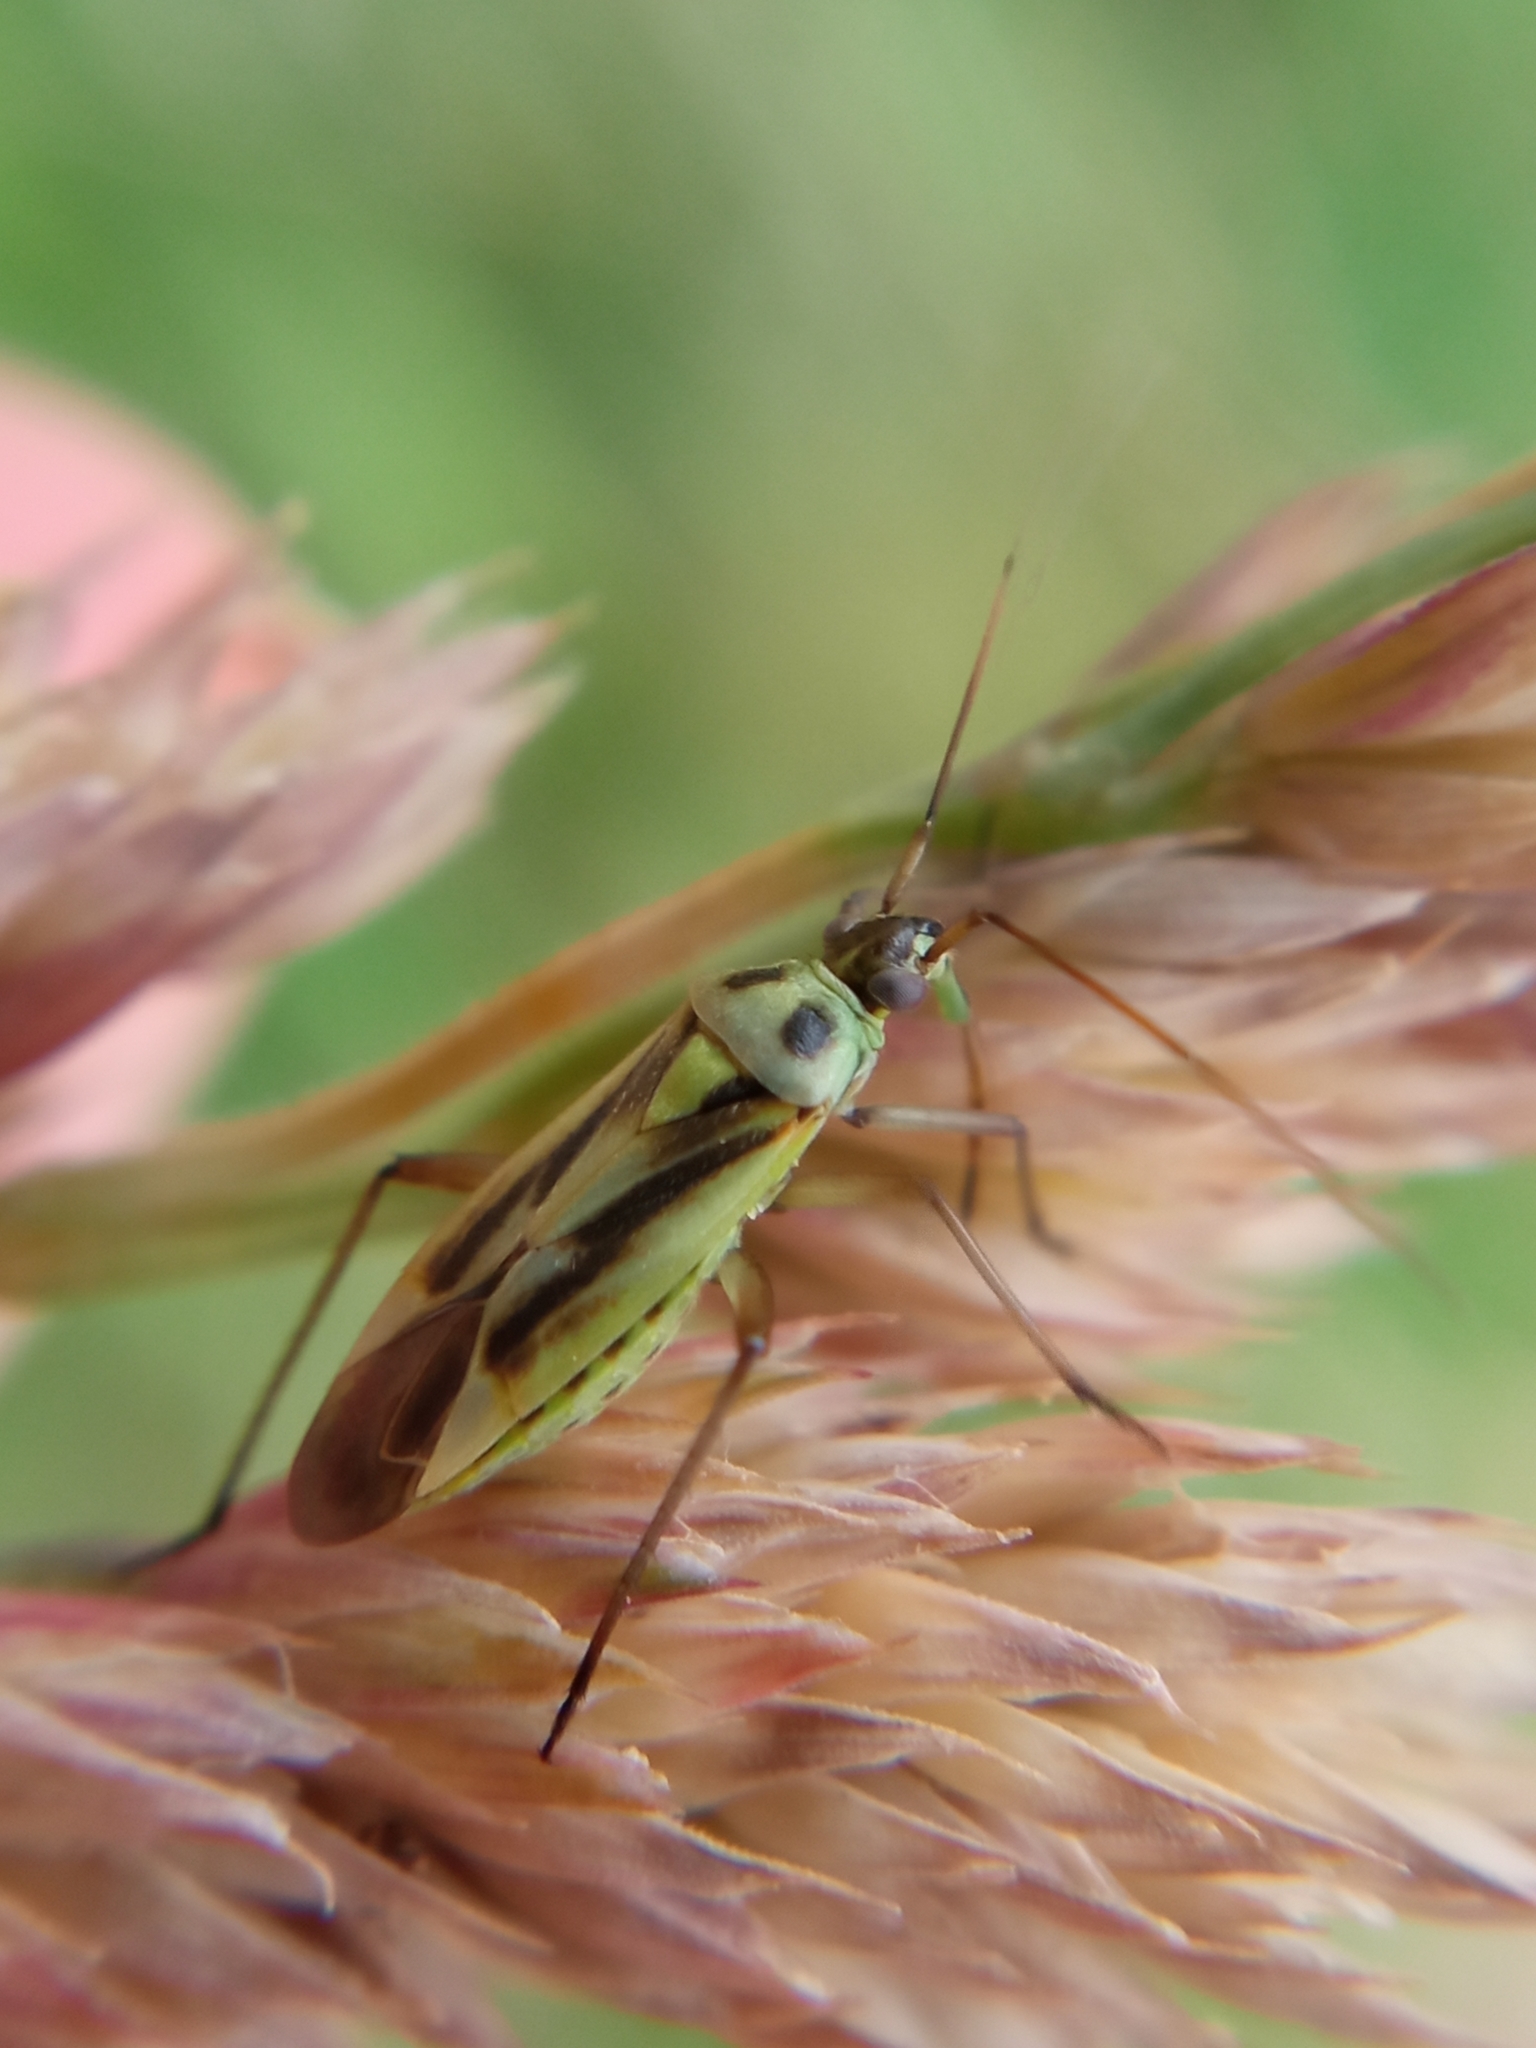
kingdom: Animalia
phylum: Arthropoda
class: Insecta
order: Hemiptera
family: Miridae
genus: Stenotus
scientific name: Stenotus binotatus
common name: Plant bug
